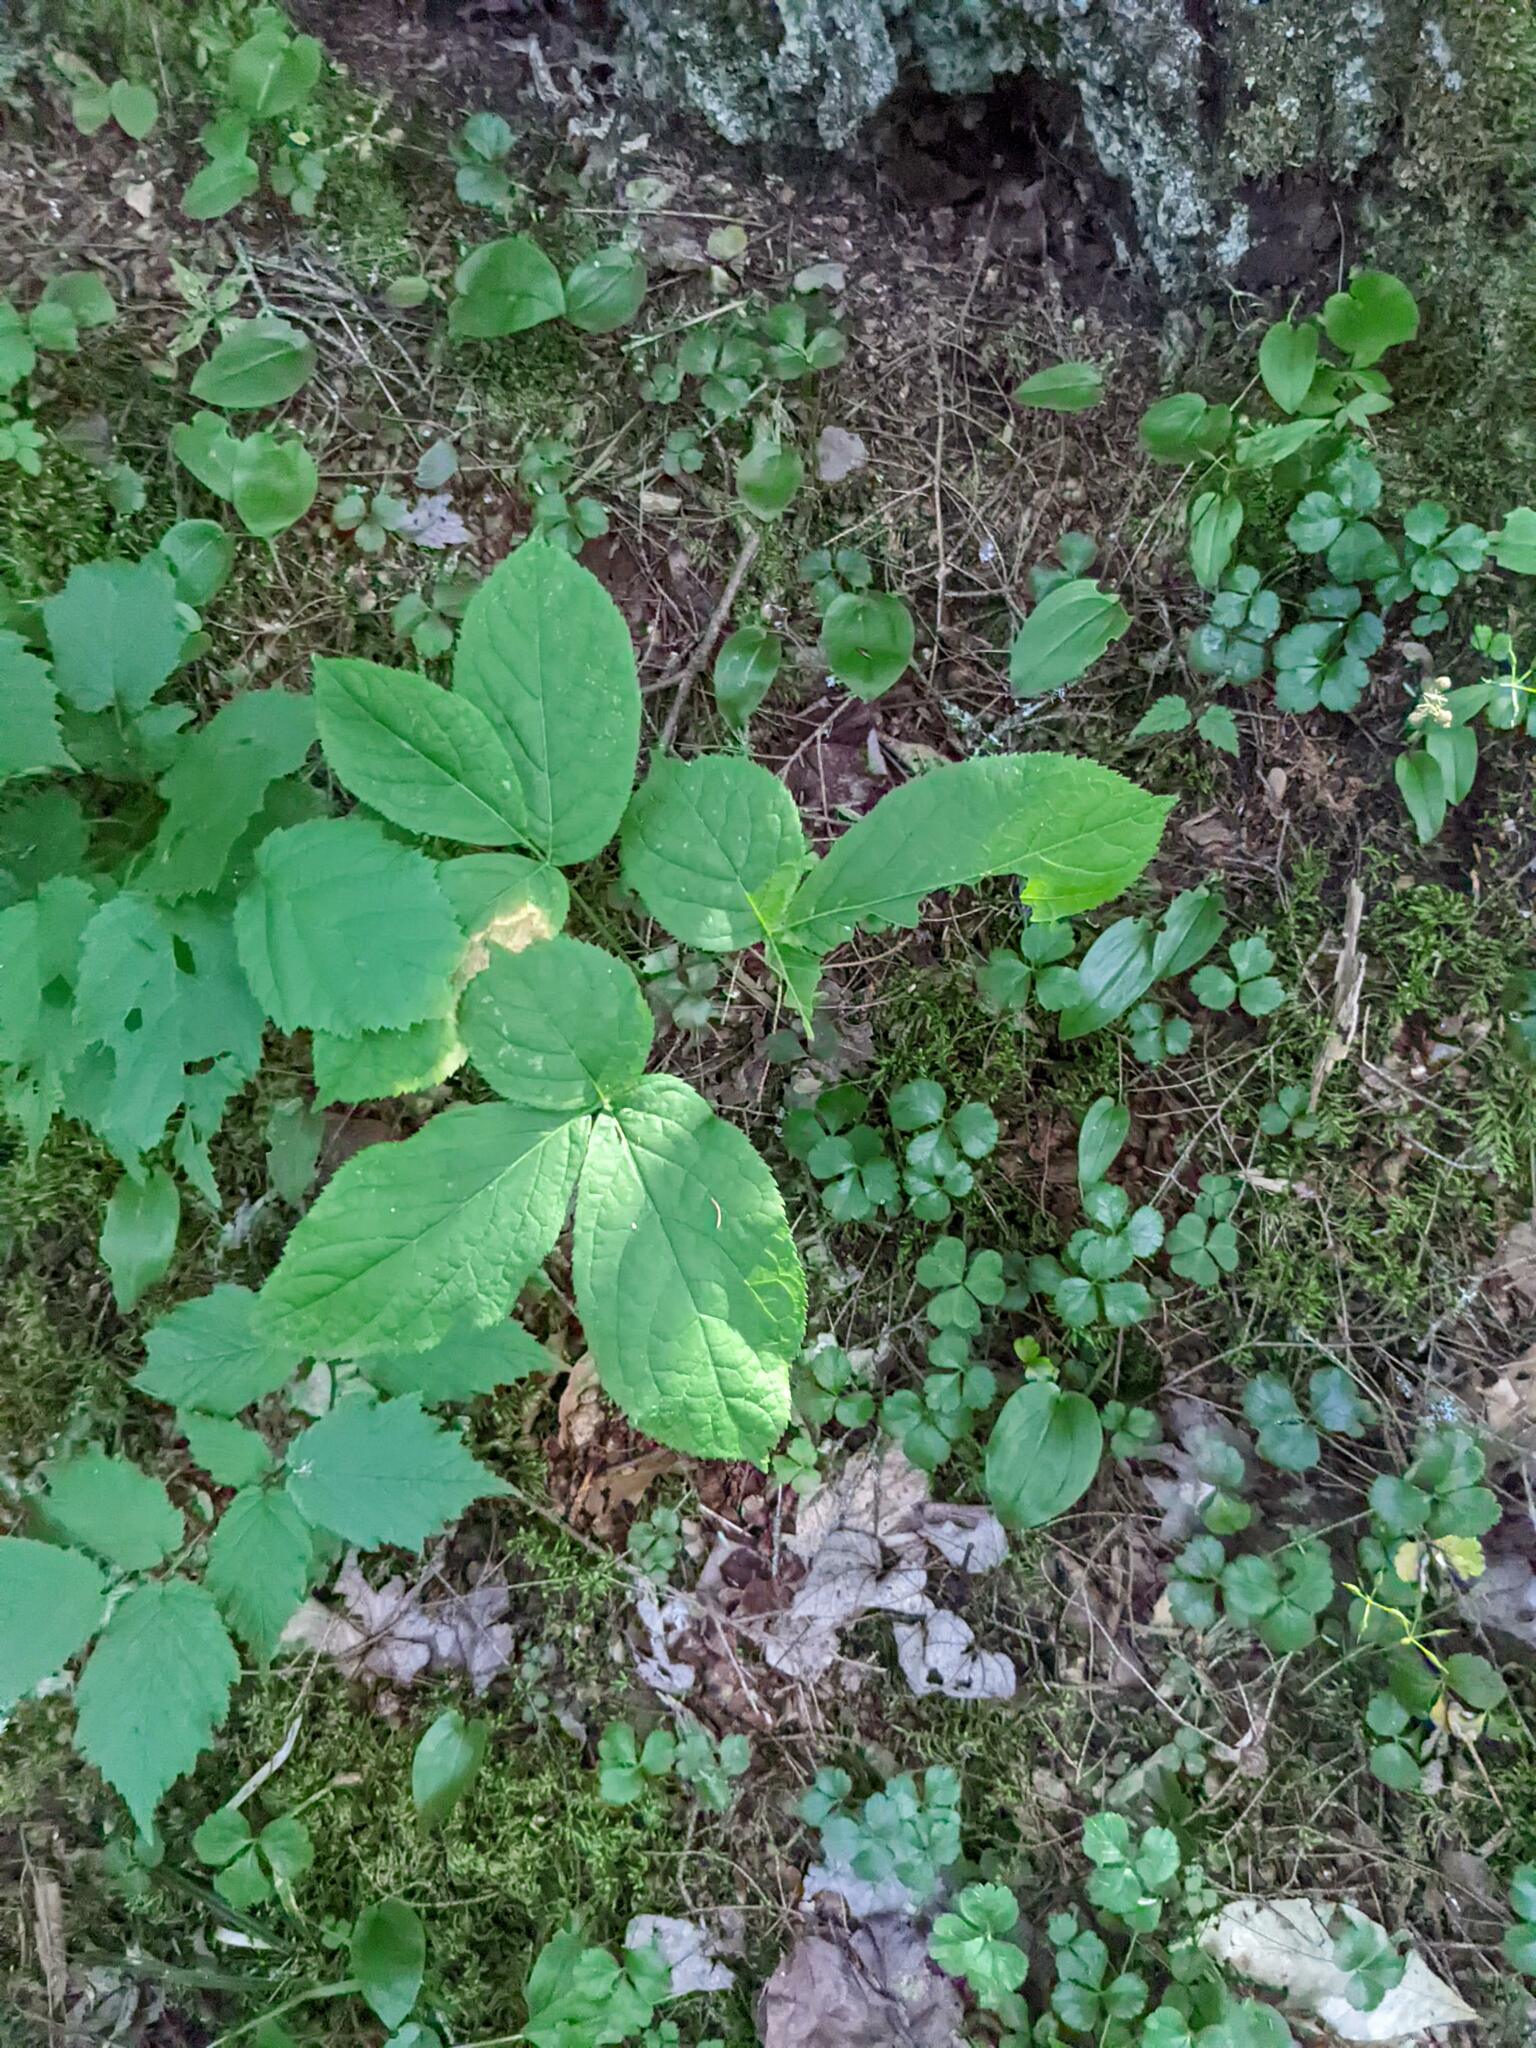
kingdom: Plantae
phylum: Tracheophyta
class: Magnoliopsida
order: Apiales
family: Araliaceae
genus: Aralia
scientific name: Aralia nudicaulis
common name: Wild sarsaparilla
